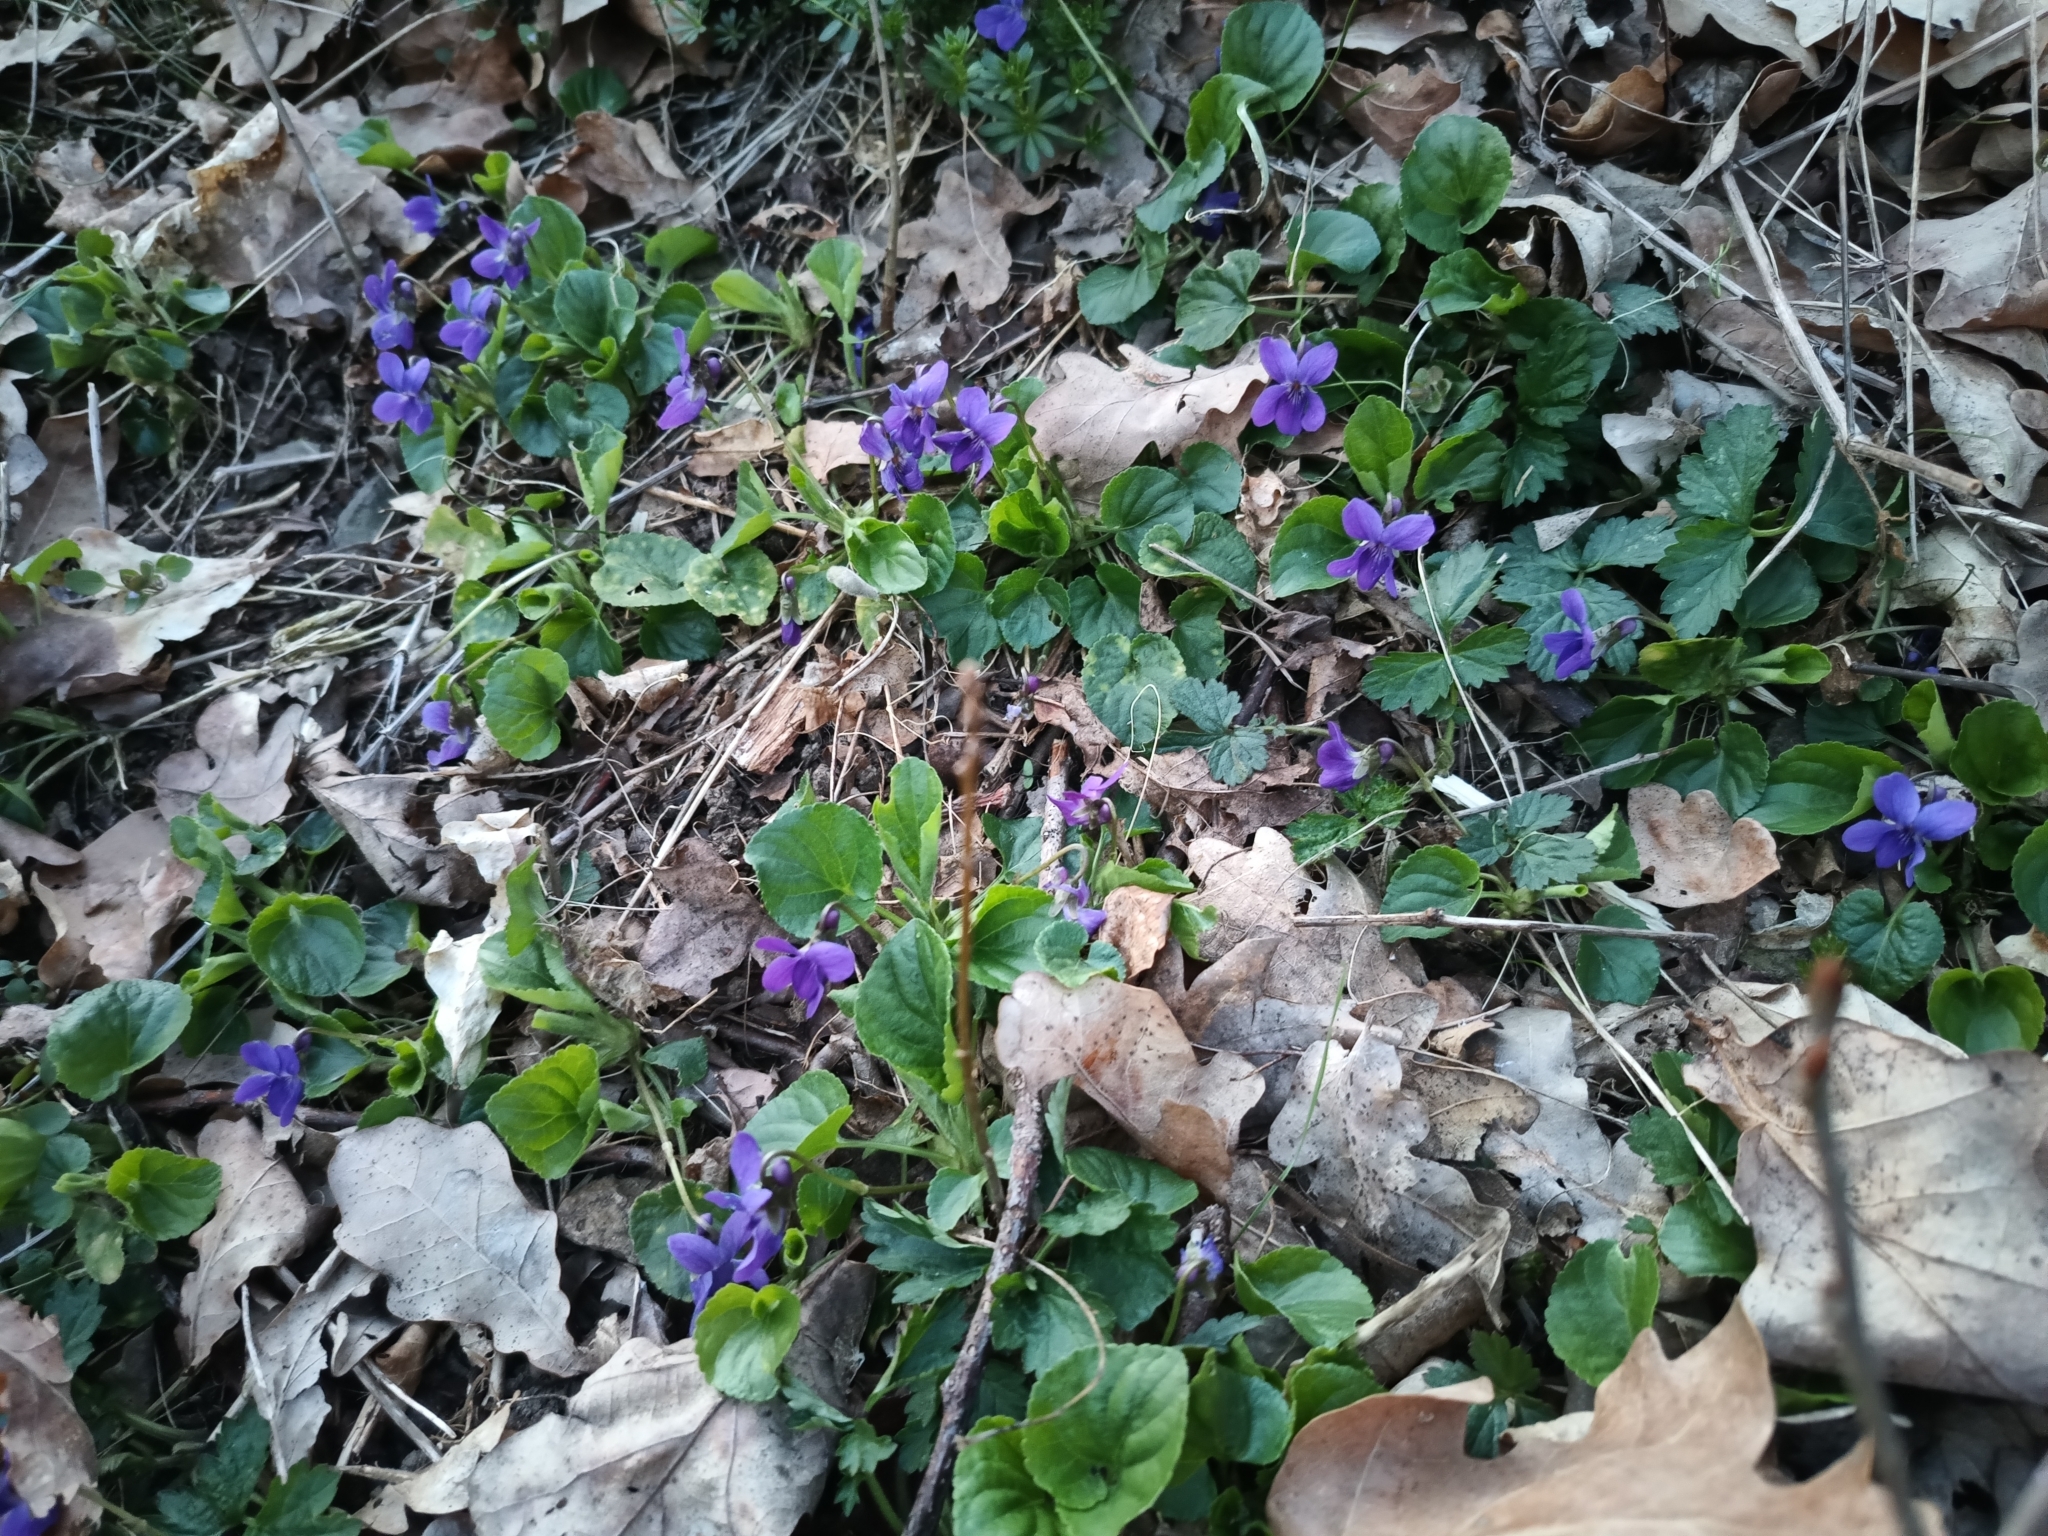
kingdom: Plantae
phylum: Tracheophyta
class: Magnoliopsida
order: Malpighiales
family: Violaceae
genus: Viola
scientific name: Viola odorata
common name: Sweet violet
